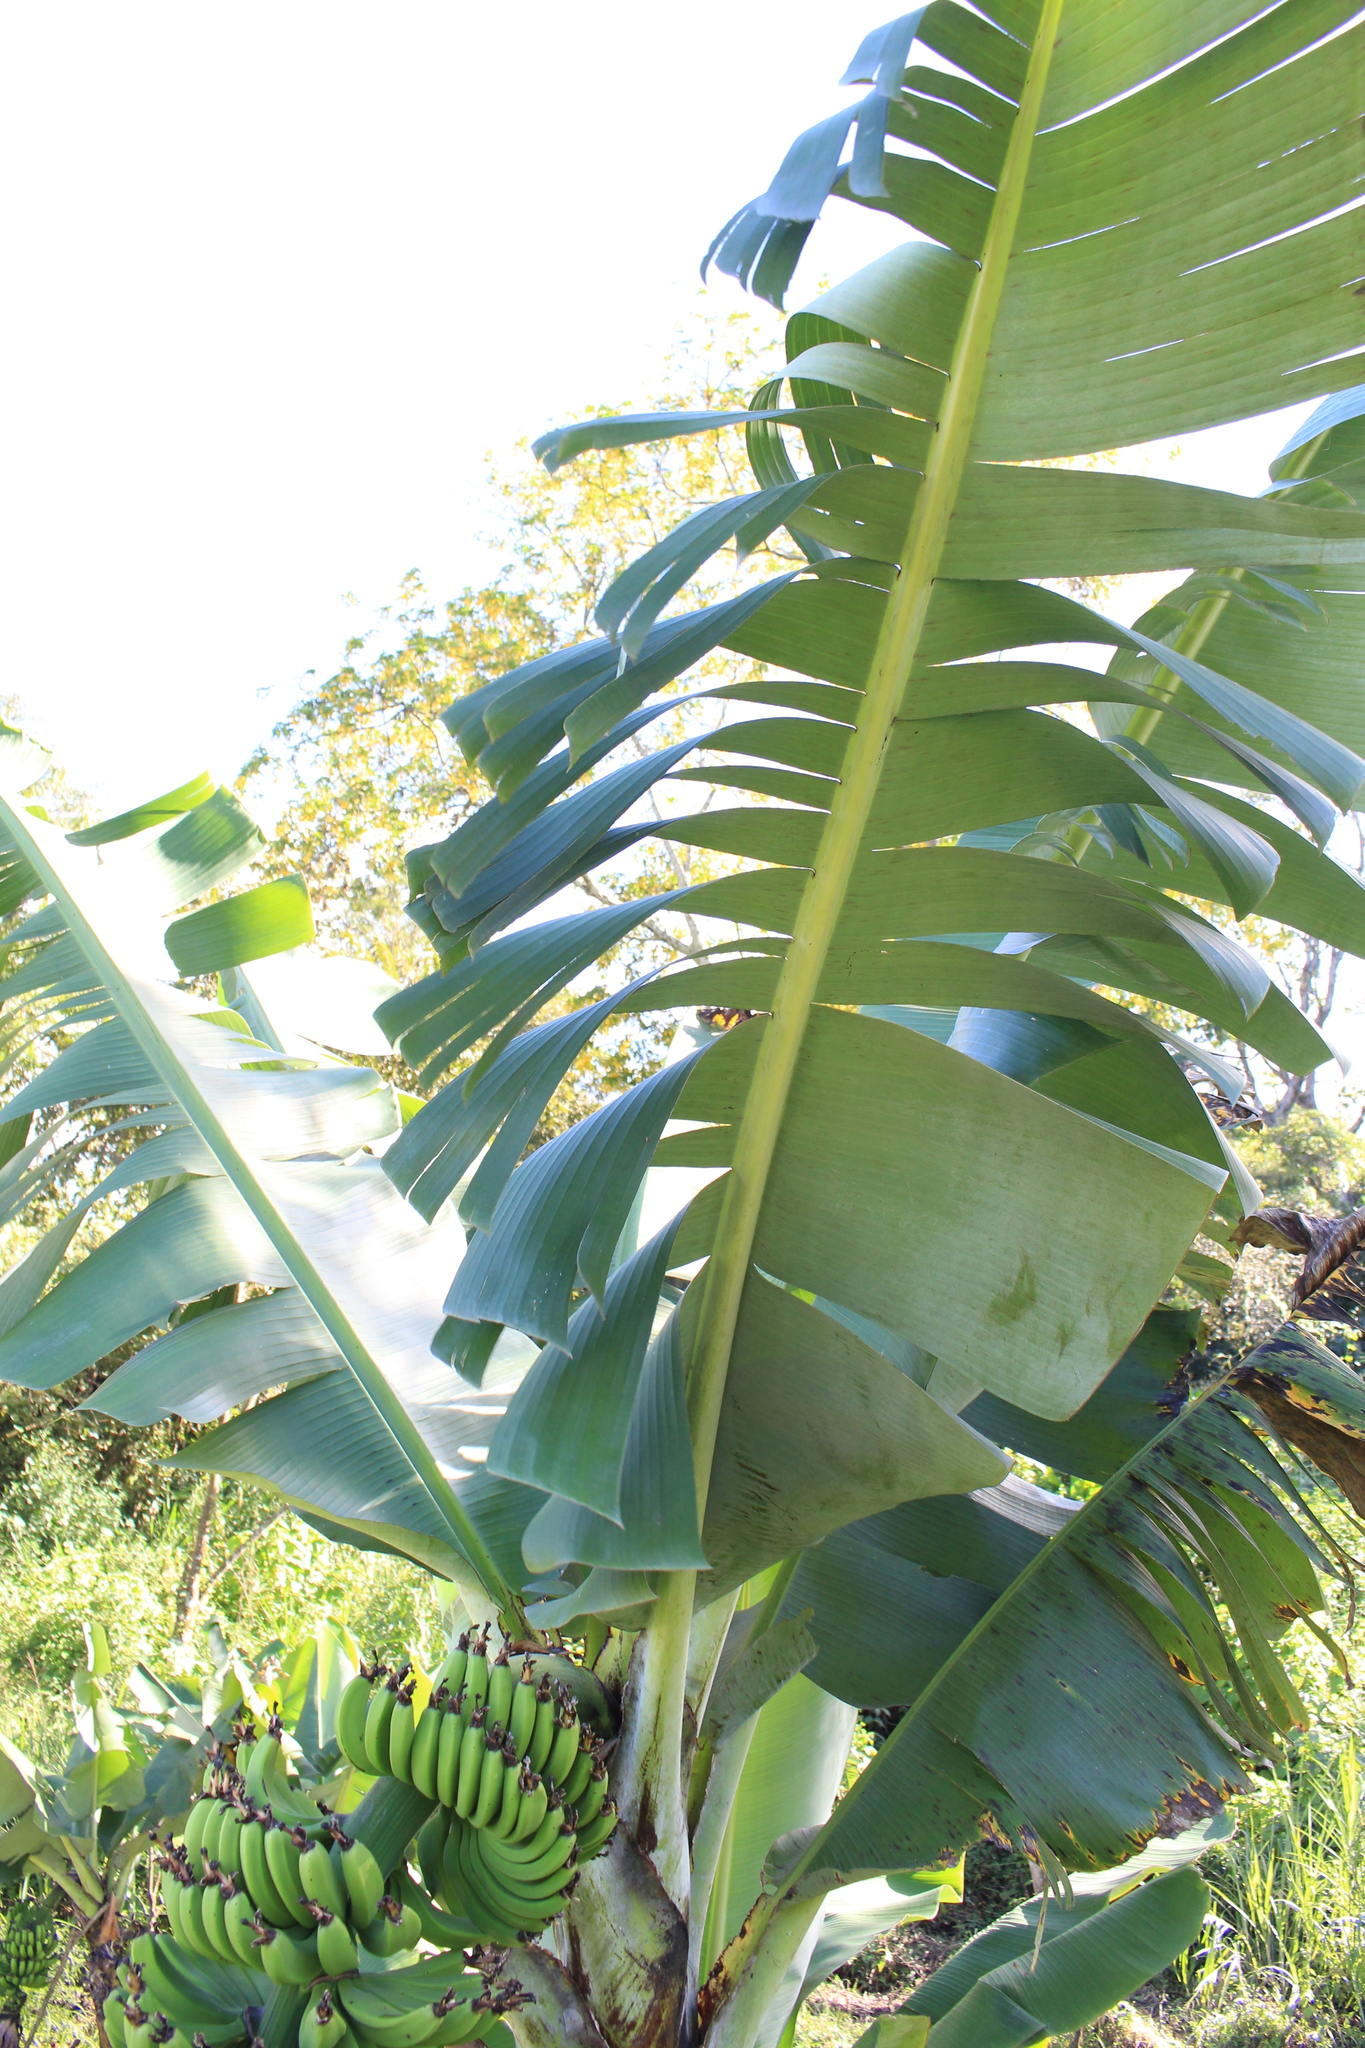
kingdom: Plantae
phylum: Tracheophyta
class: Liliopsida
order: Zingiberales
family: Musaceae
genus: Musa
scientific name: Musa acuminata
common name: Edible banana
